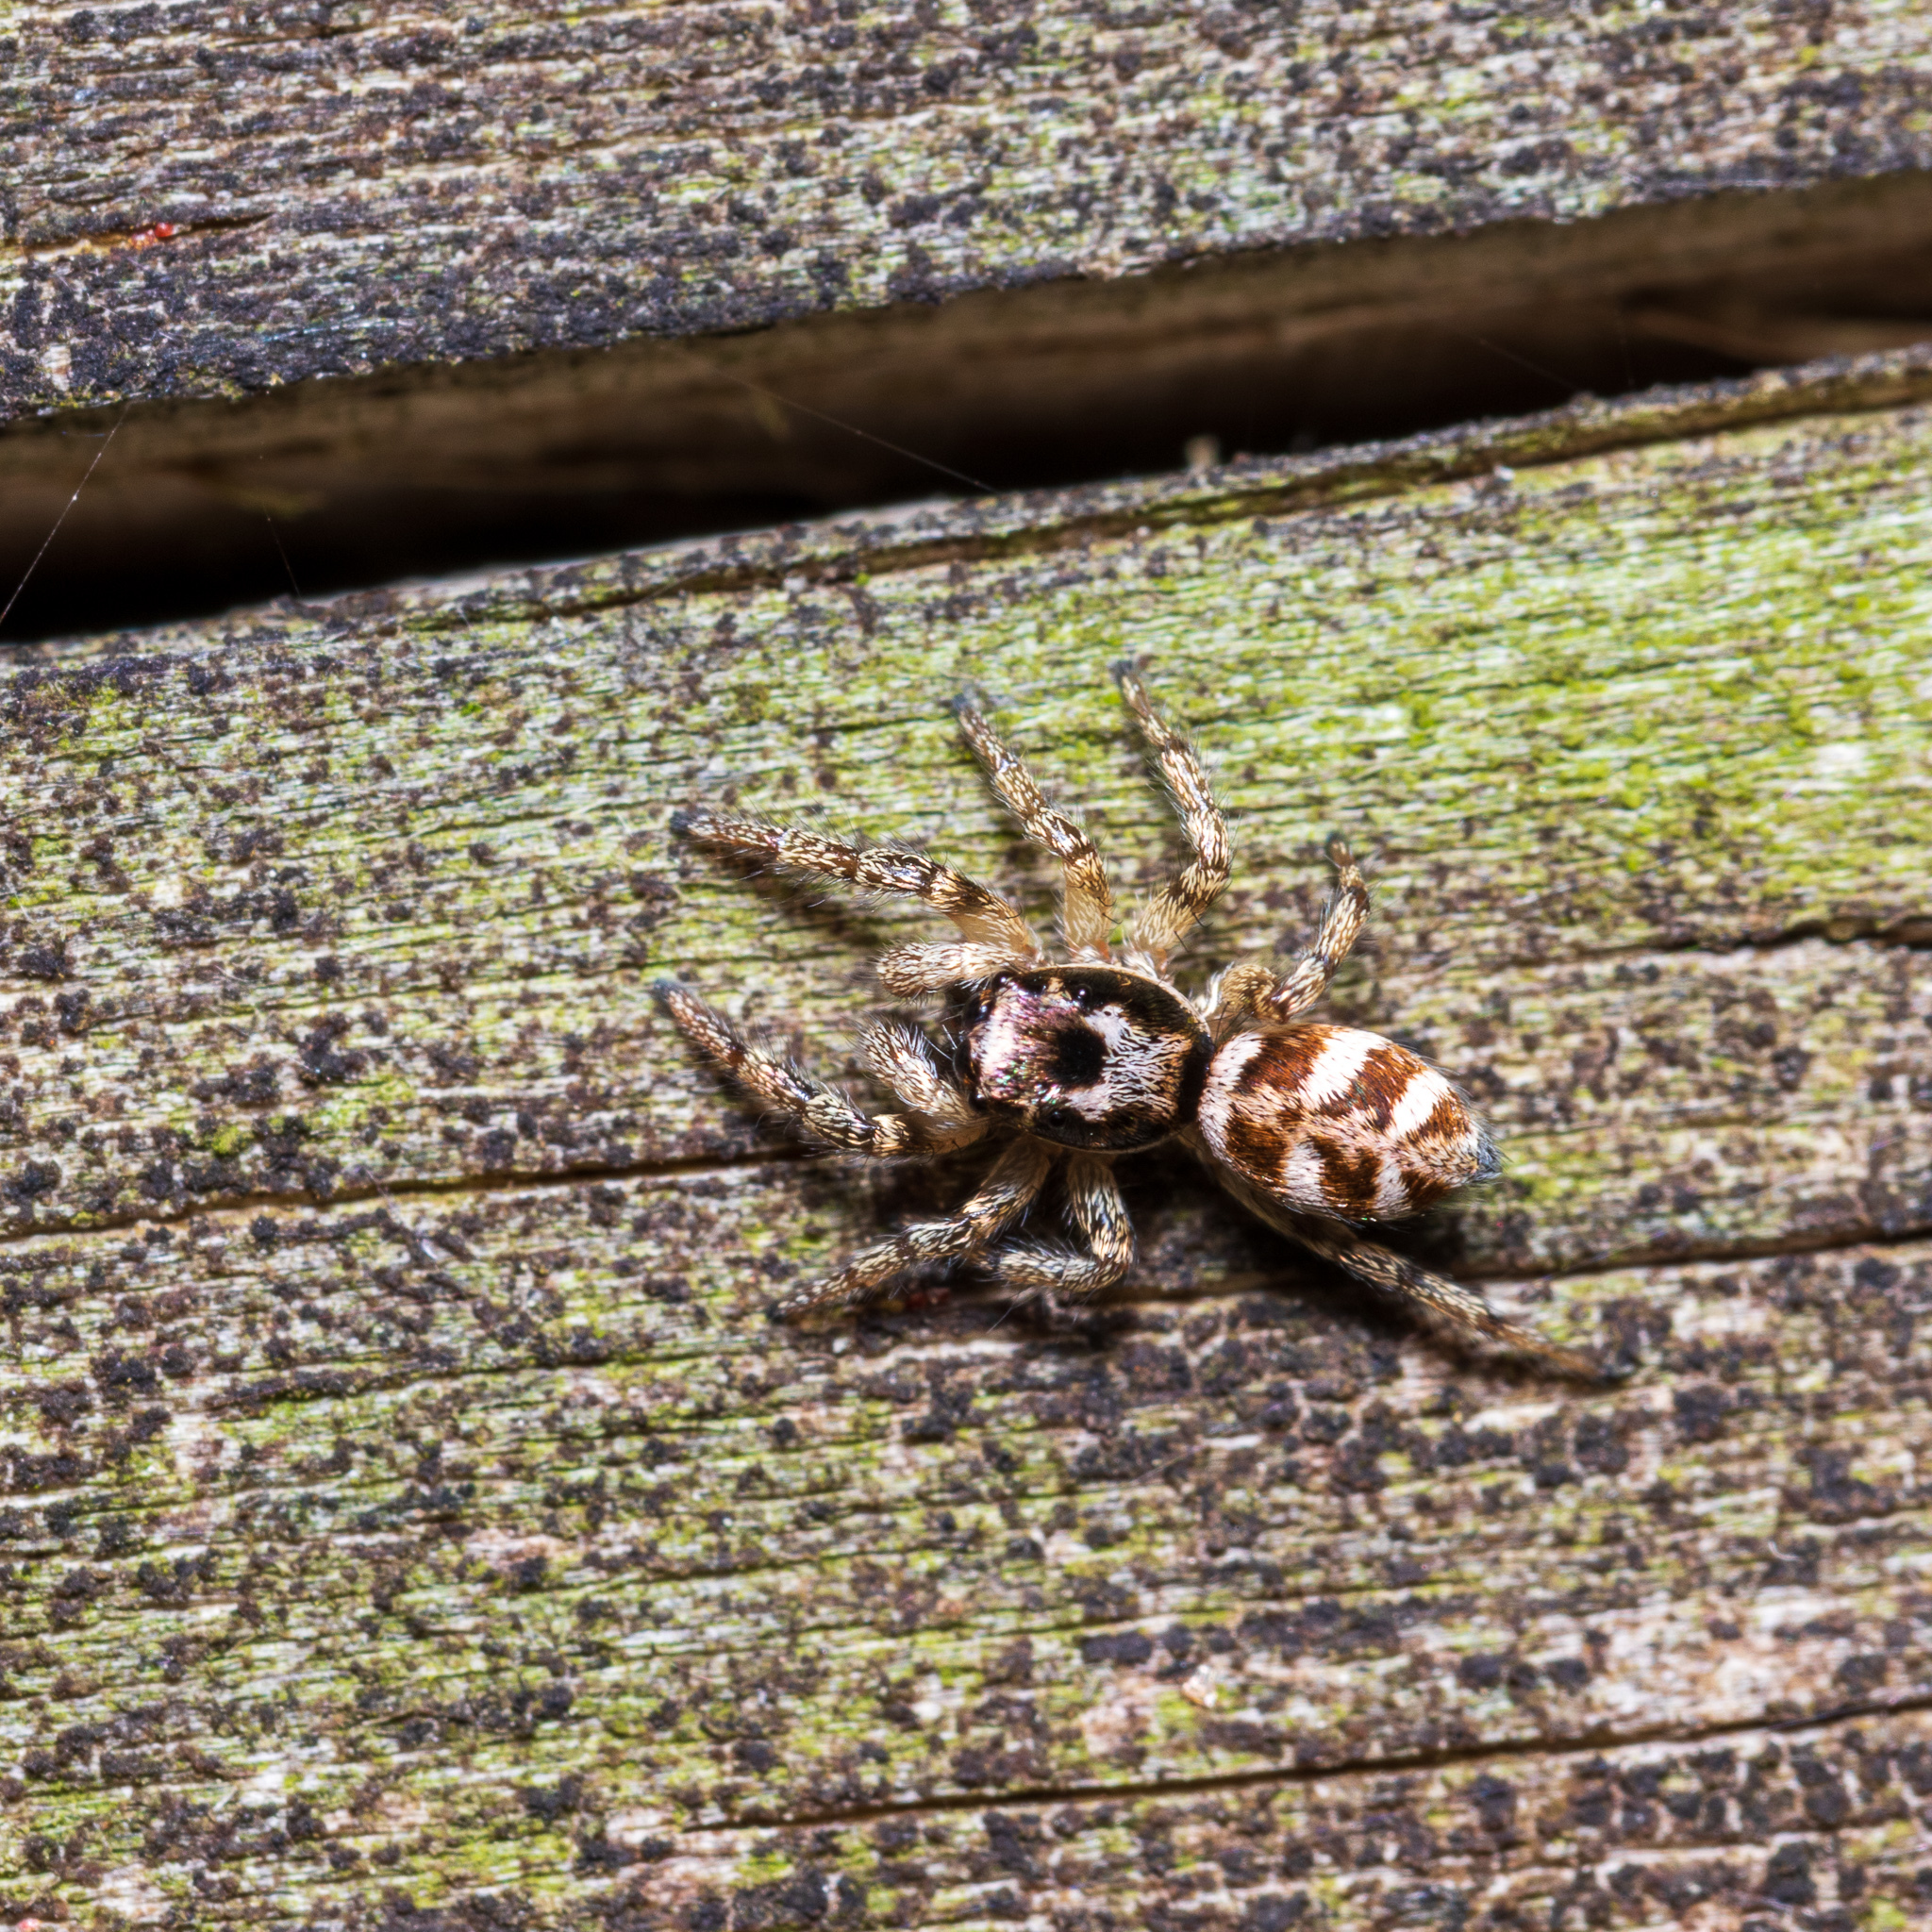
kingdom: Animalia
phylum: Arthropoda
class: Arachnida
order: Araneae
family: Salticidae
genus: Salticus
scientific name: Salticus scenicus
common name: Zebra jumper
